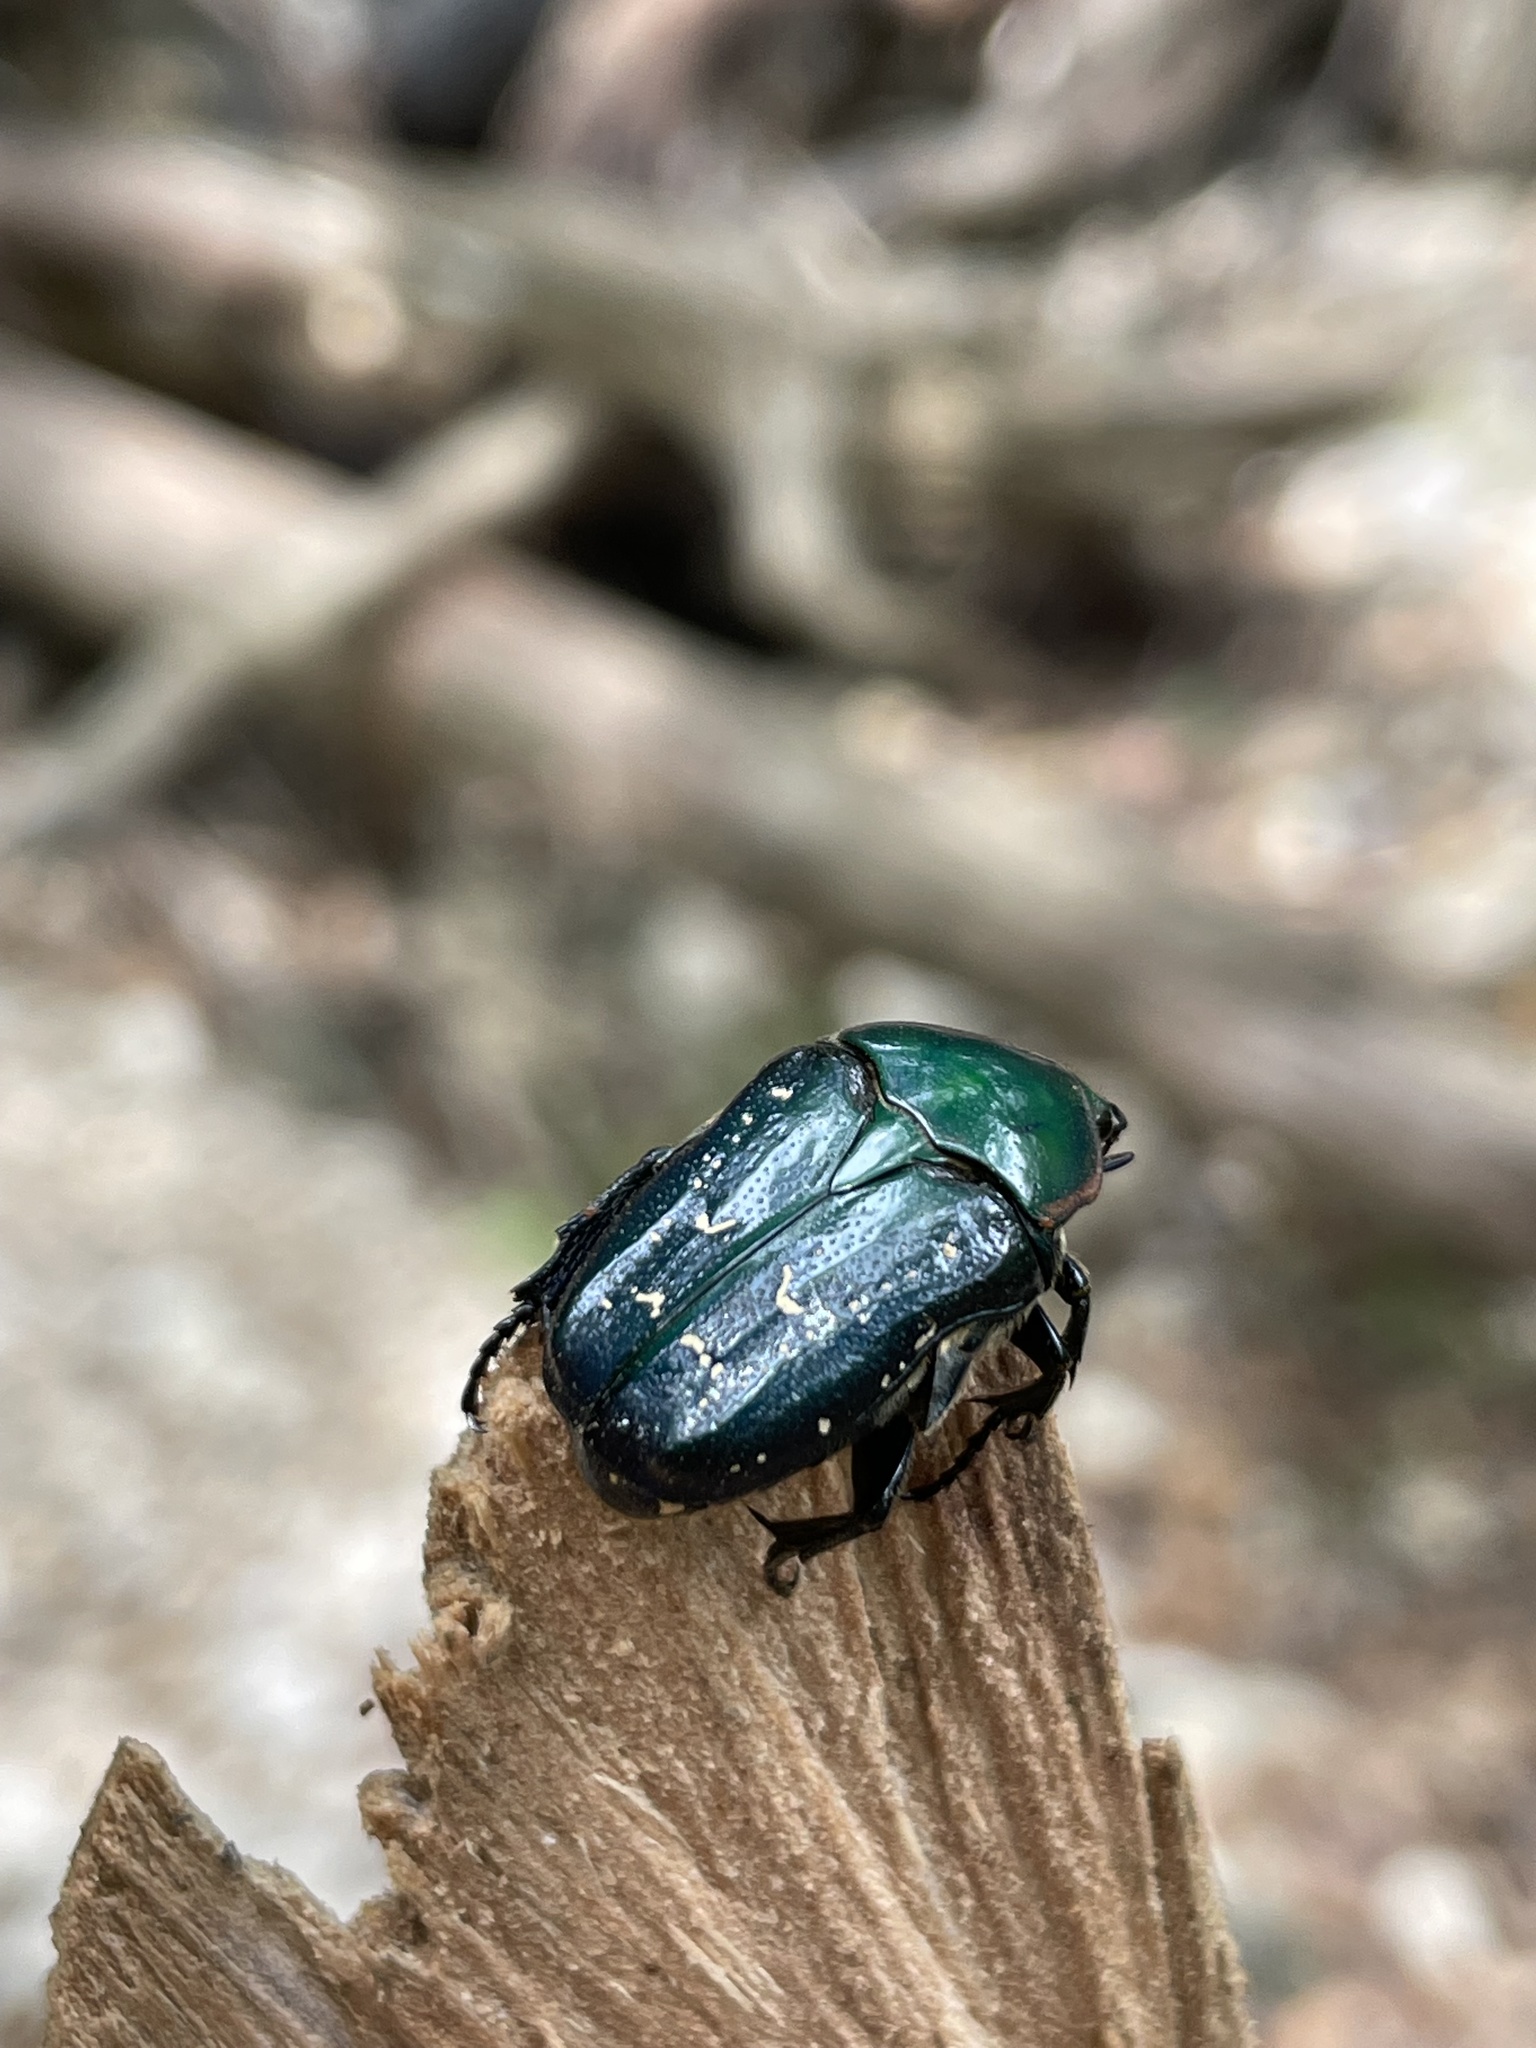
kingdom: Animalia
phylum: Arthropoda
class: Insecta
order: Coleoptera
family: Scarabaeidae
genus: Euphoria
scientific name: Euphoria fulgida
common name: Emerald euphoria
